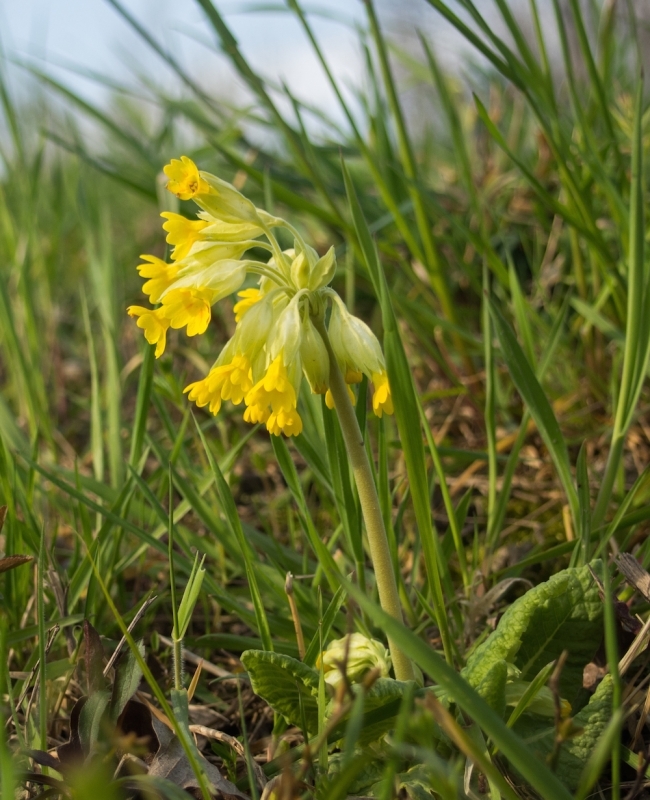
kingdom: Plantae
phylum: Tracheophyta
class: Magnoliopsida
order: Ericales
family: Primulaceae
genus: Primula
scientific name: Primula veris
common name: Cowslip
